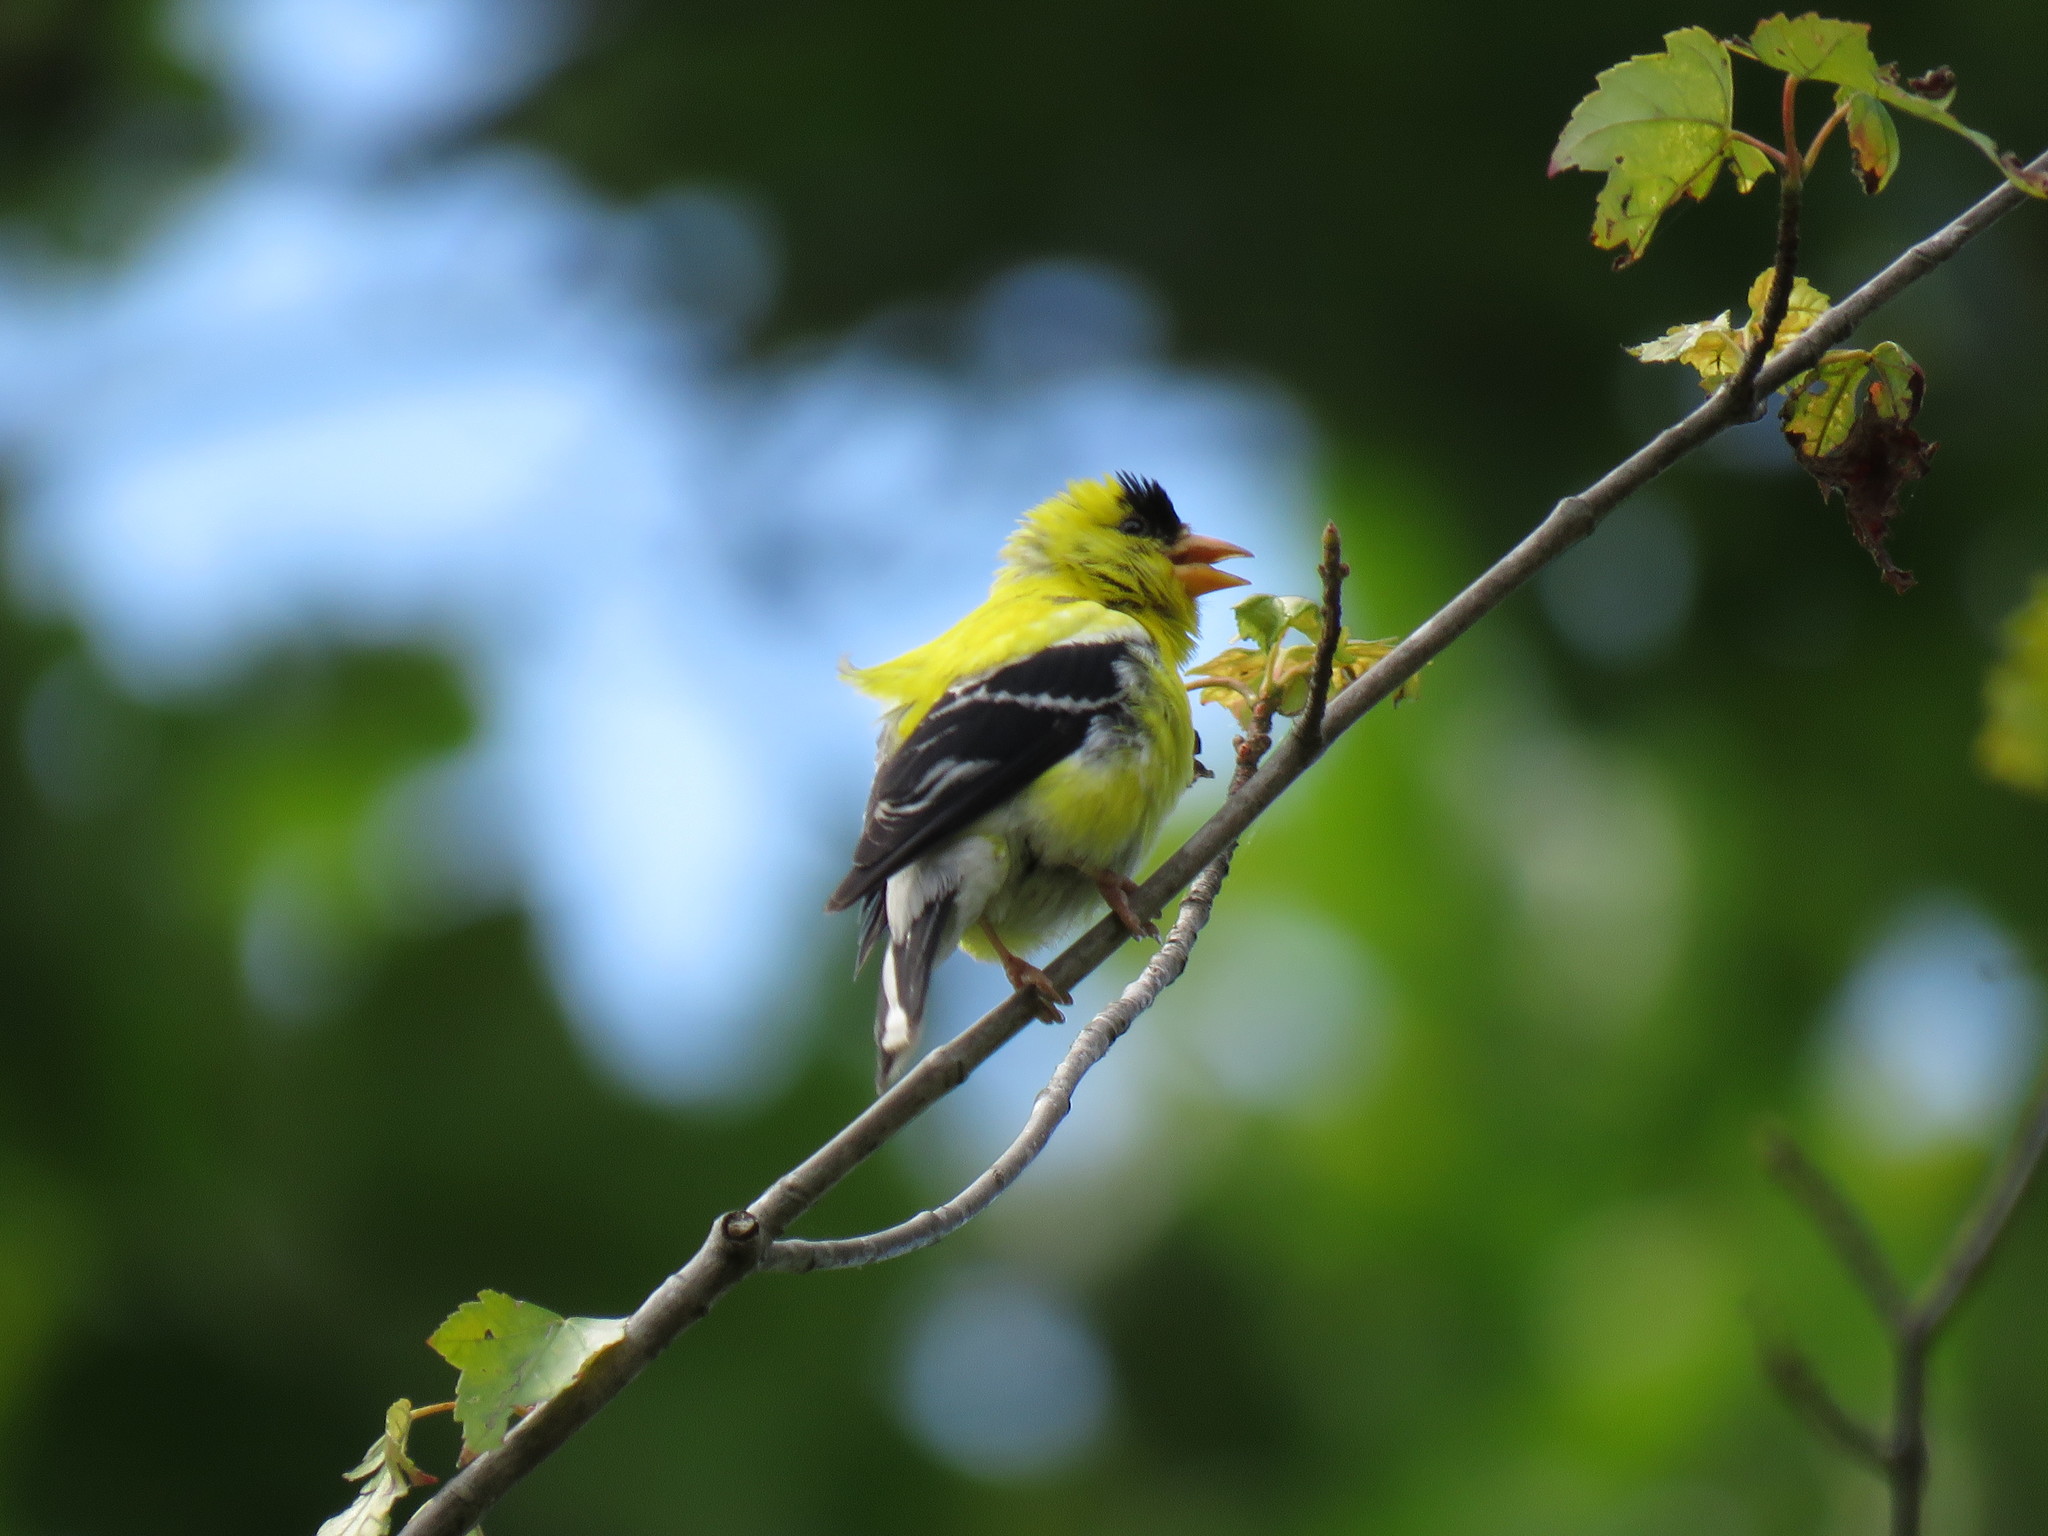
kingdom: Animalia
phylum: Chordata
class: Aves
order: Passeriformes
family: Fringillidae
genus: Spinus
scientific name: Spinus tristis
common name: American goldfinch
